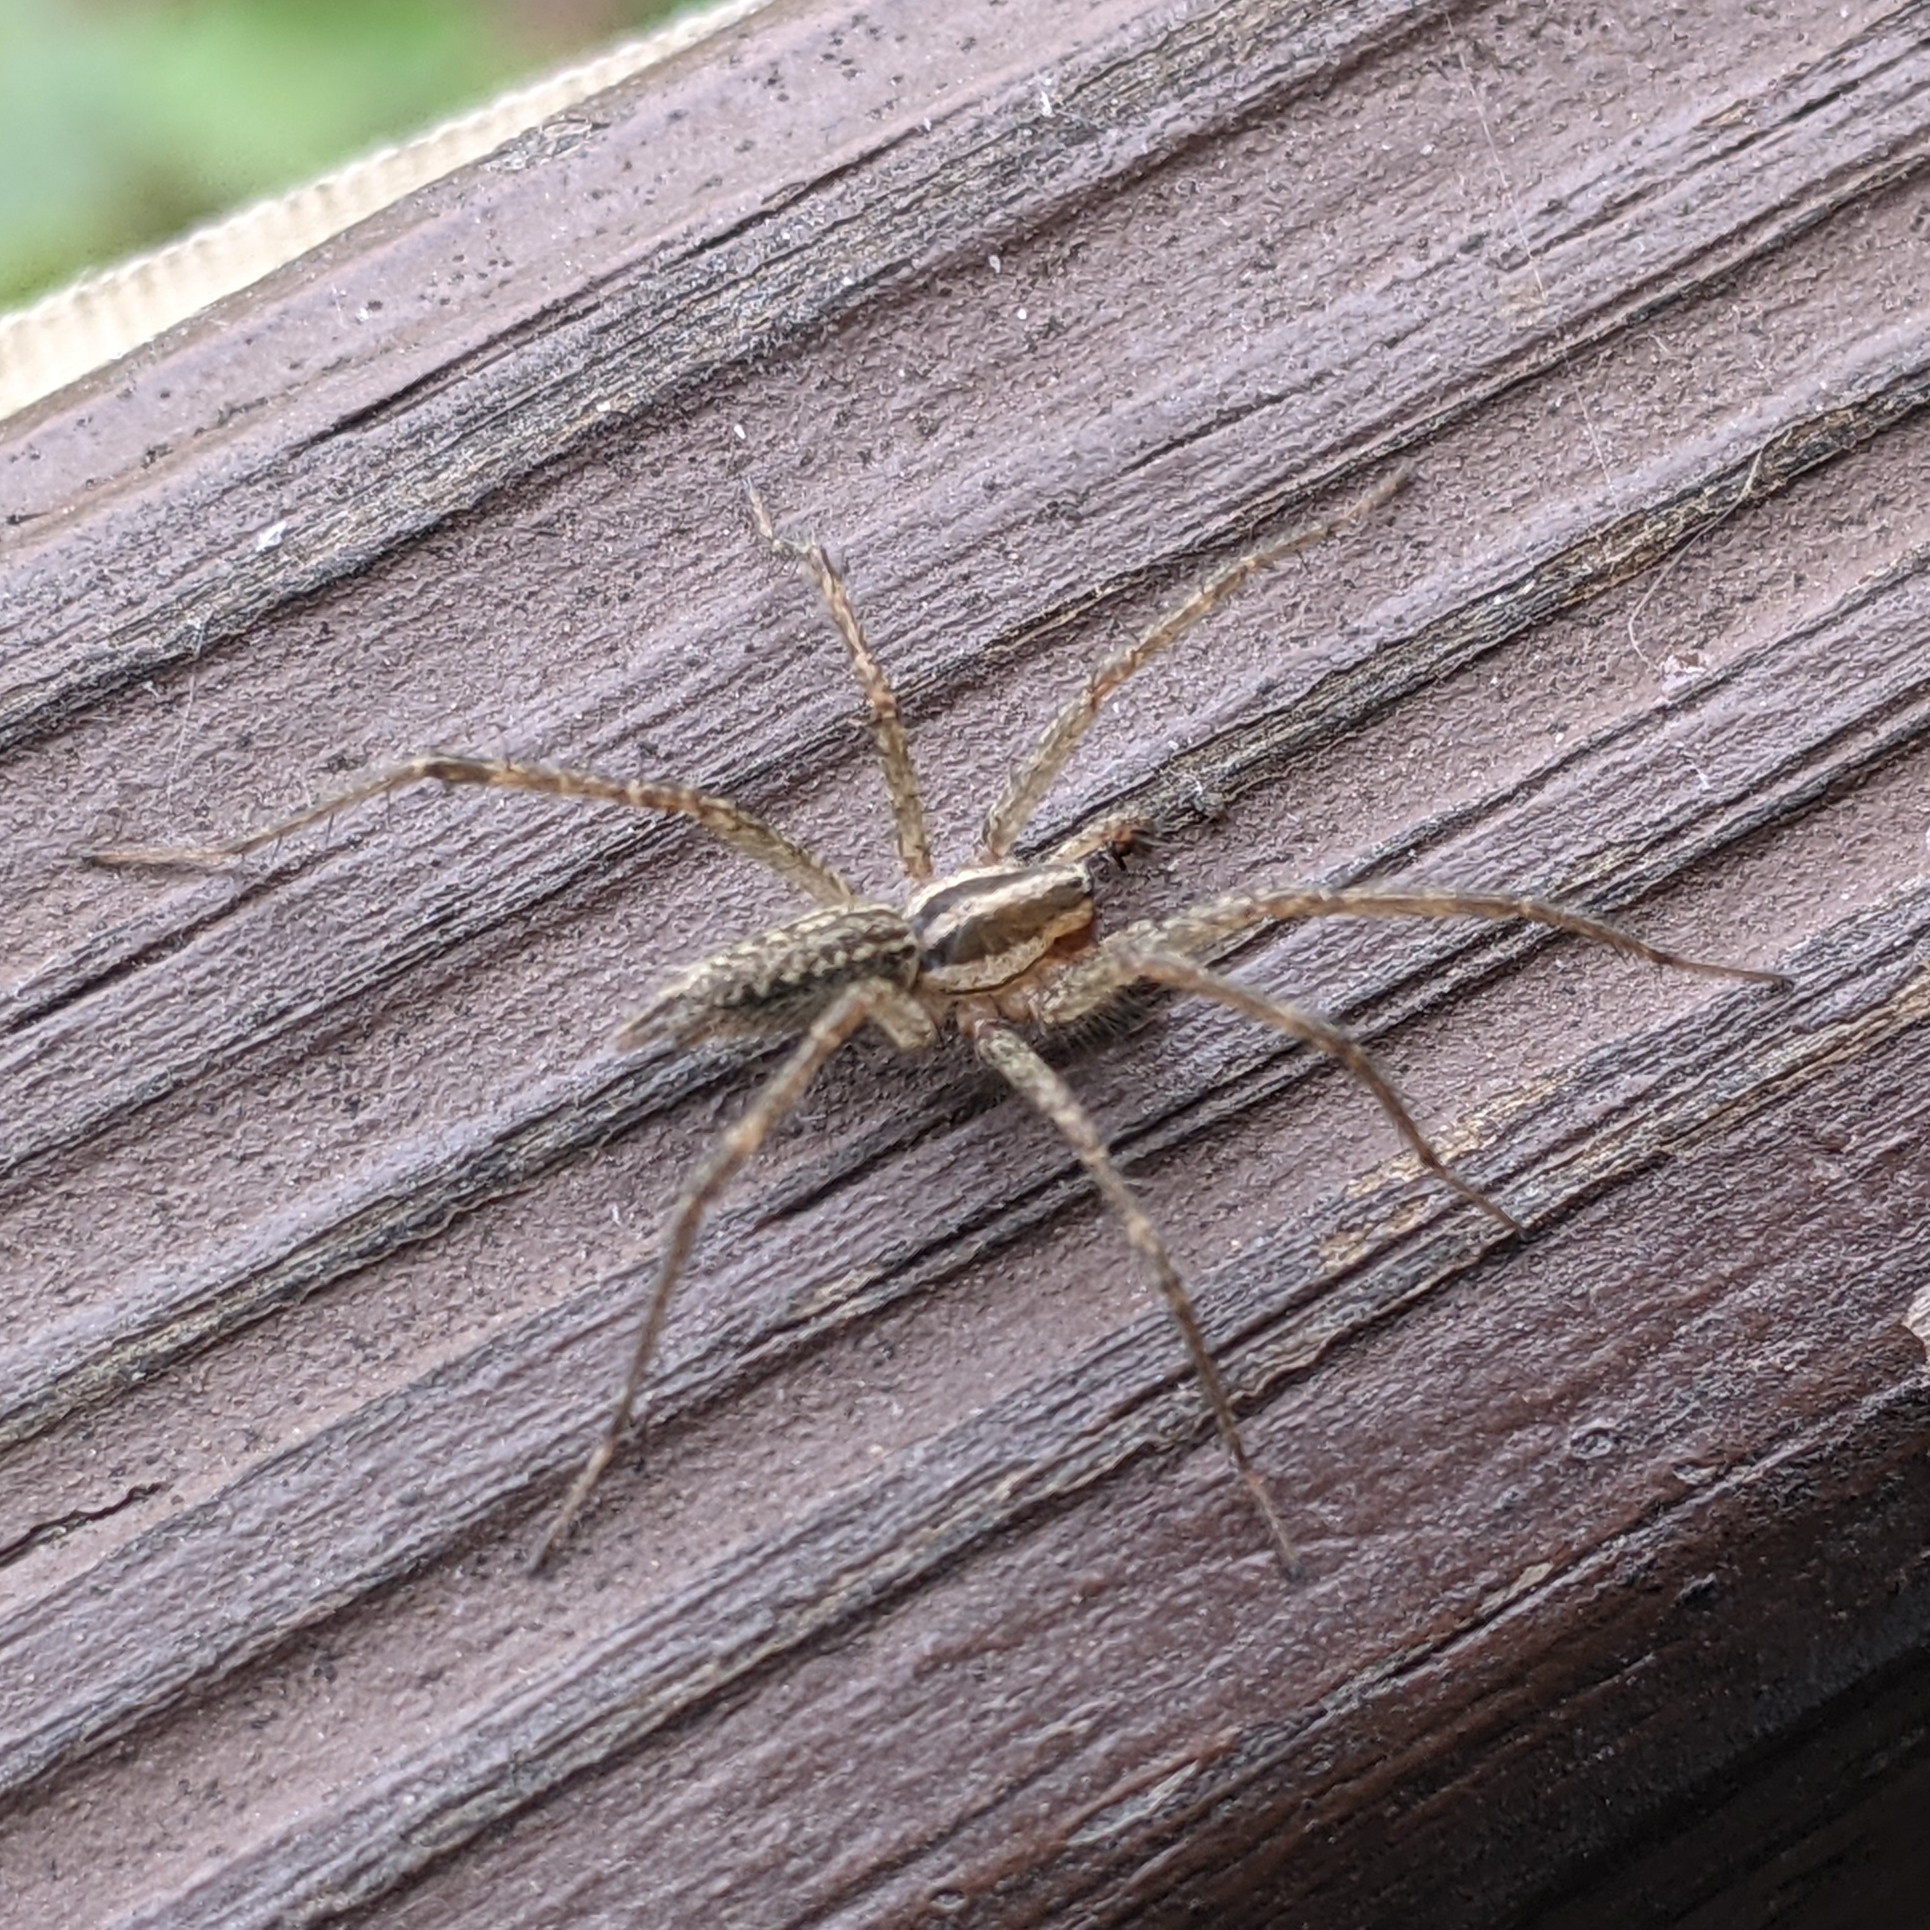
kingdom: Animalia
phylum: Arthropoda
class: Arachnida
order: Araneae
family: Agelenidae
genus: Agelenopsis
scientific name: Agelenopsis
